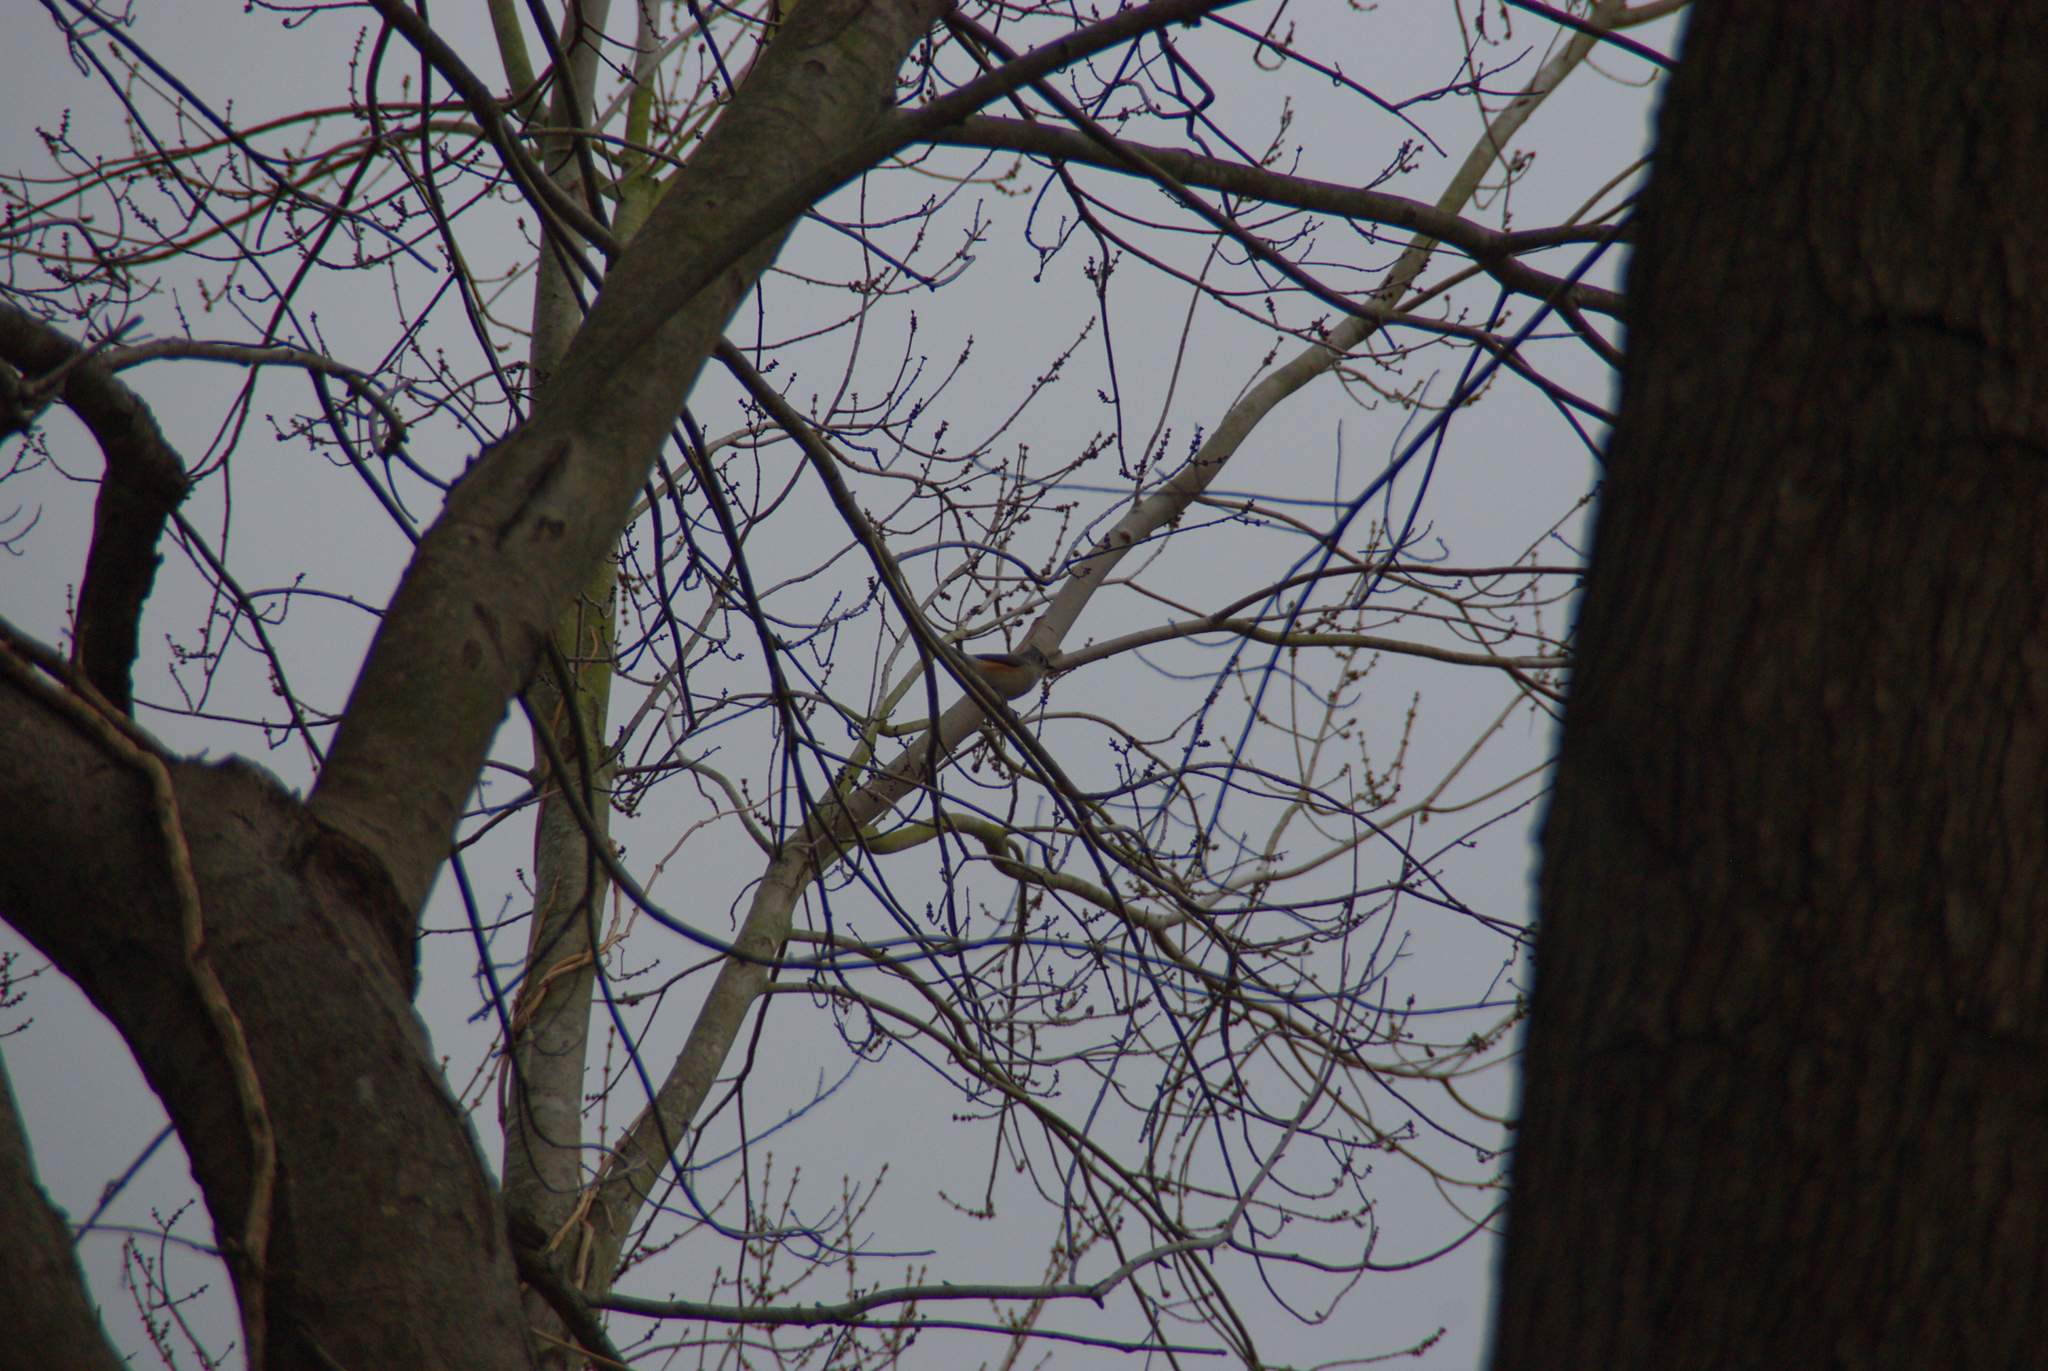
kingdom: Animalia
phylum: Chordata
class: Aves
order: Passeriformes
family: Paridae
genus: Baeolophus
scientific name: Baeolophus bicolor
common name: Tufted titmouse
